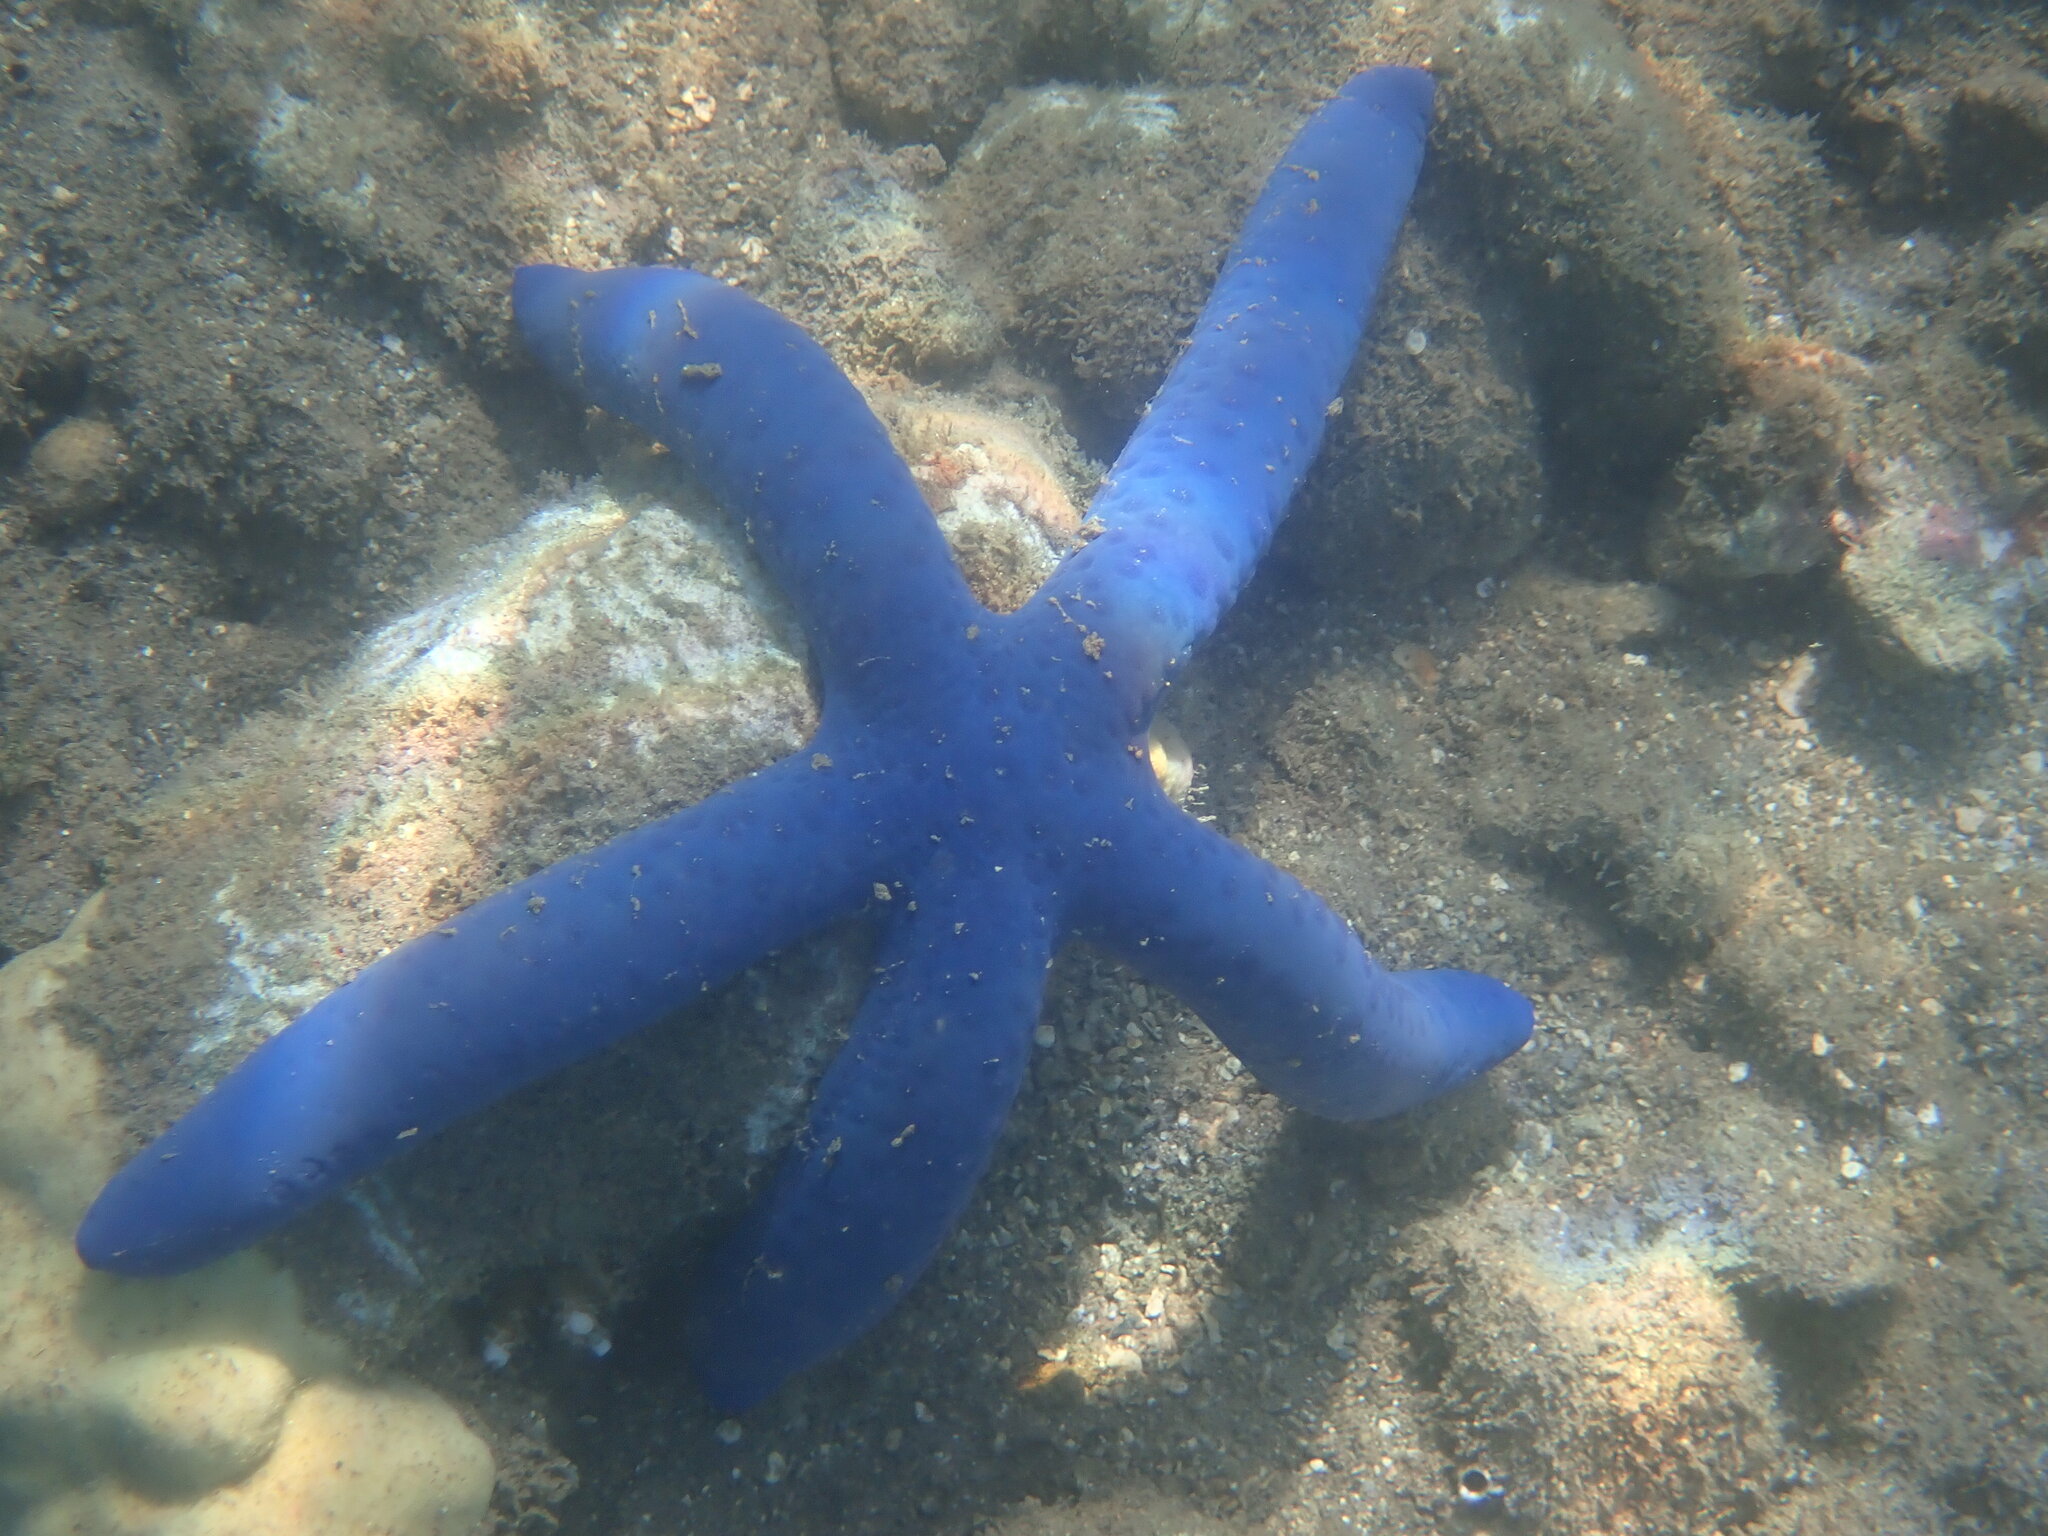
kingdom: Animalia
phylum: Echinodermata
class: Asteroidea
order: Valvatida
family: Ophidiasteridae
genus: Linckia
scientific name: Linckia laevigata
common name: Azure sea star
